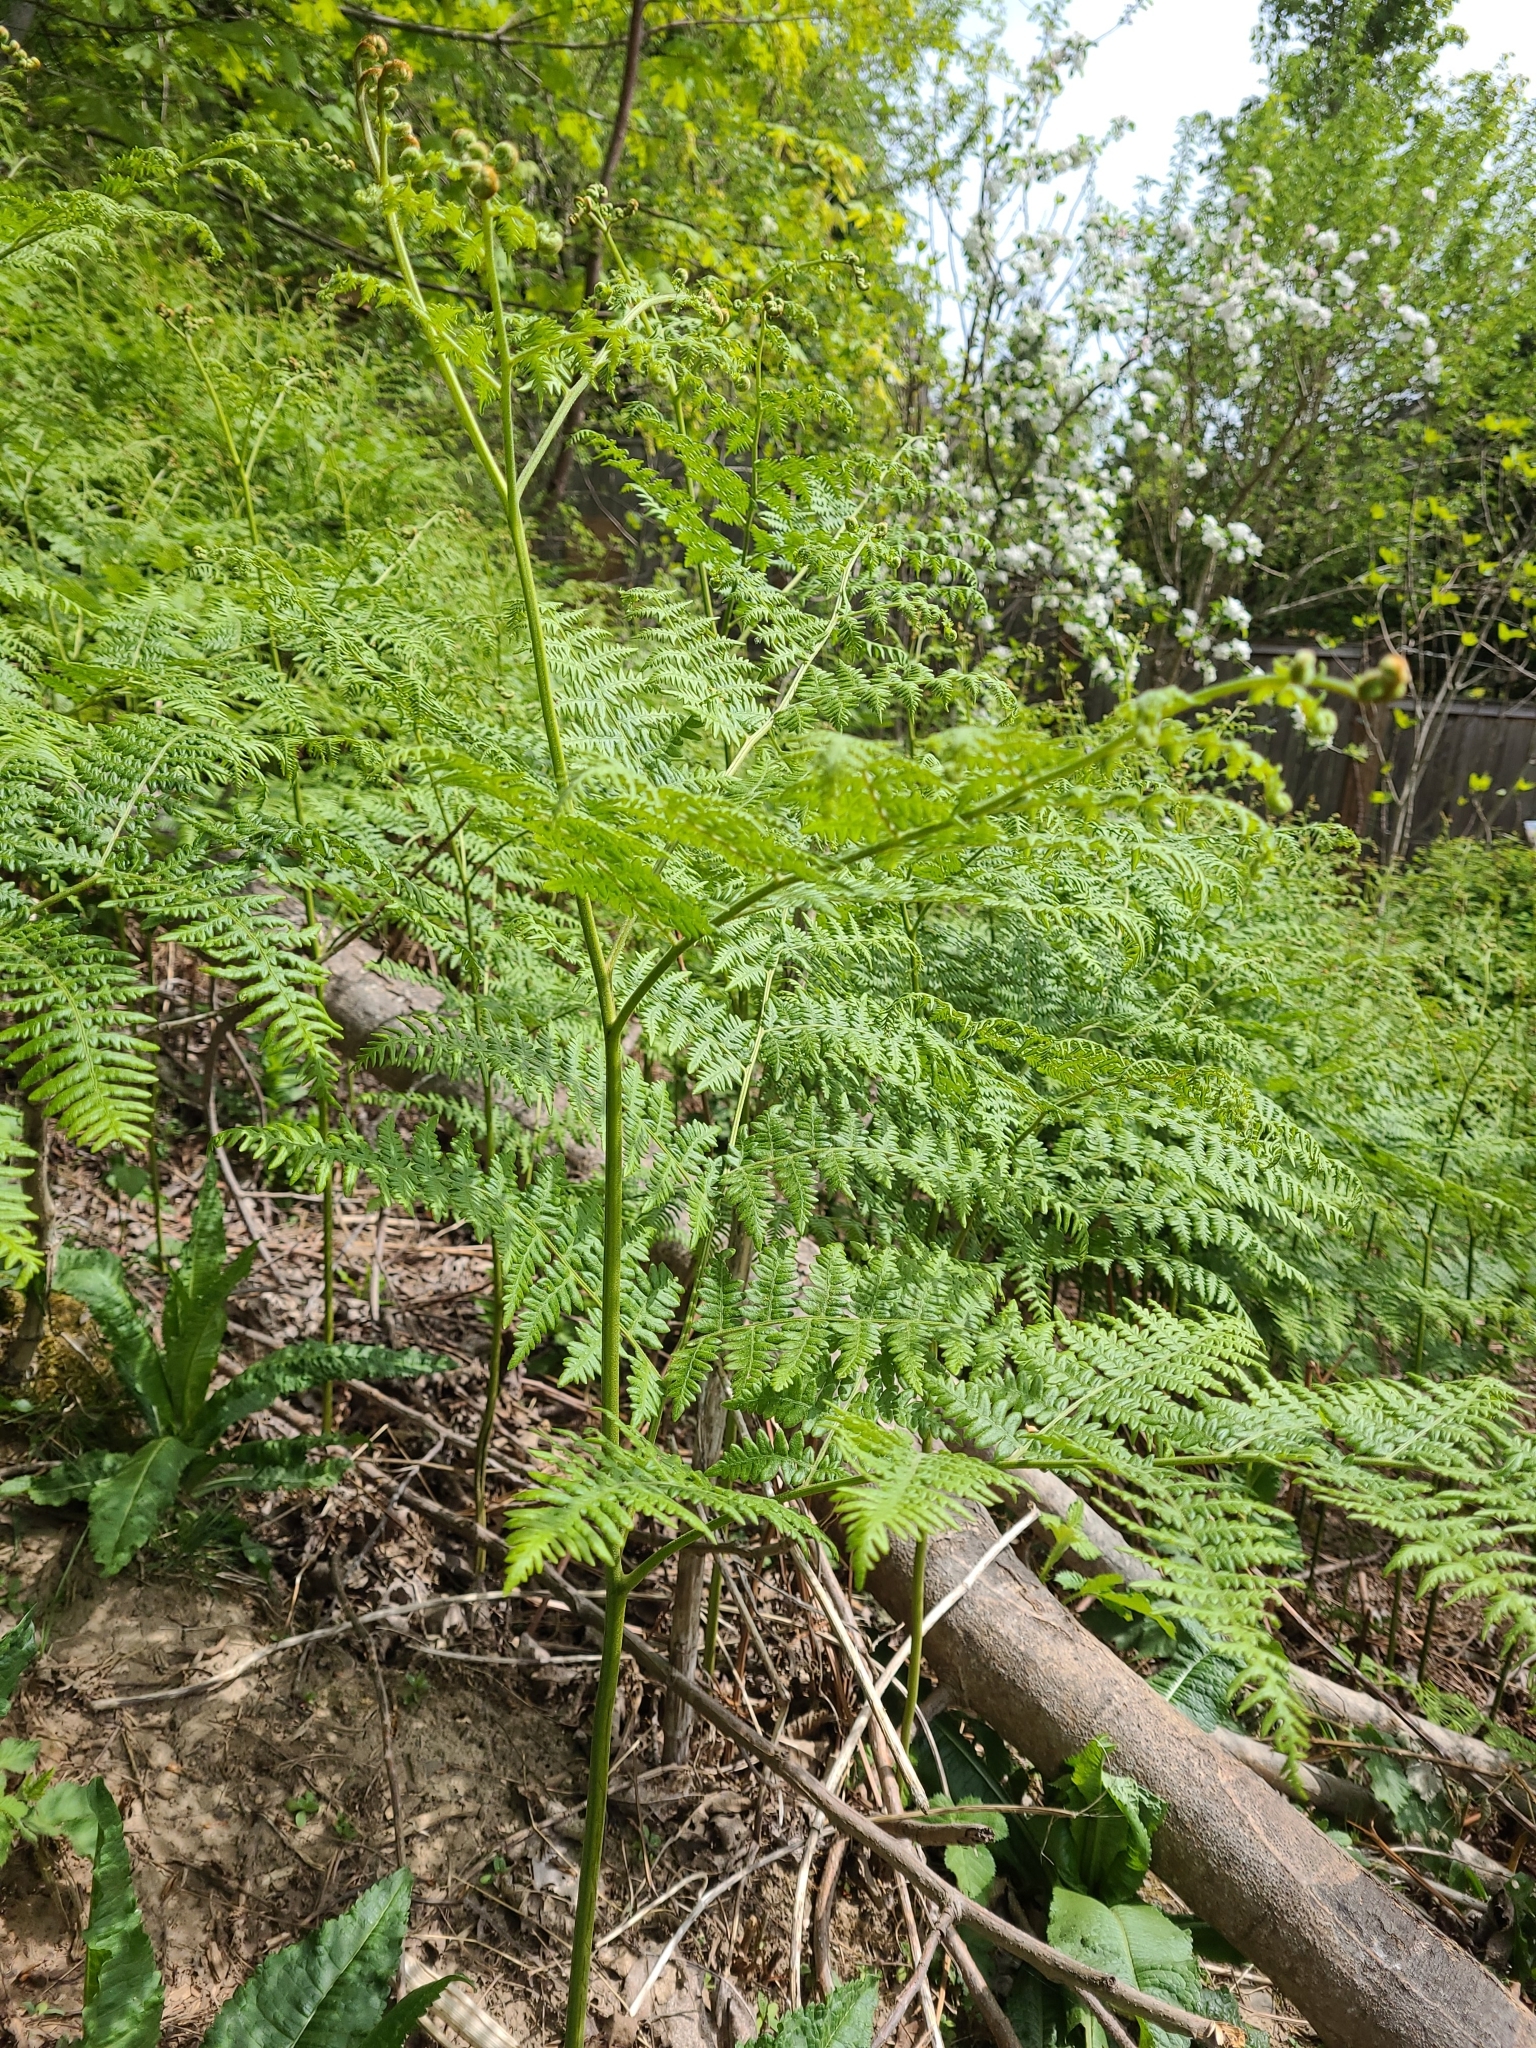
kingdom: Plantae
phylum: Tracheophyta
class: Polypodiopsida
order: Polypodiales
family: Dennstaedtiaceae
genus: Pteridium
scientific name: Pteridium aquilinum
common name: Bracken
